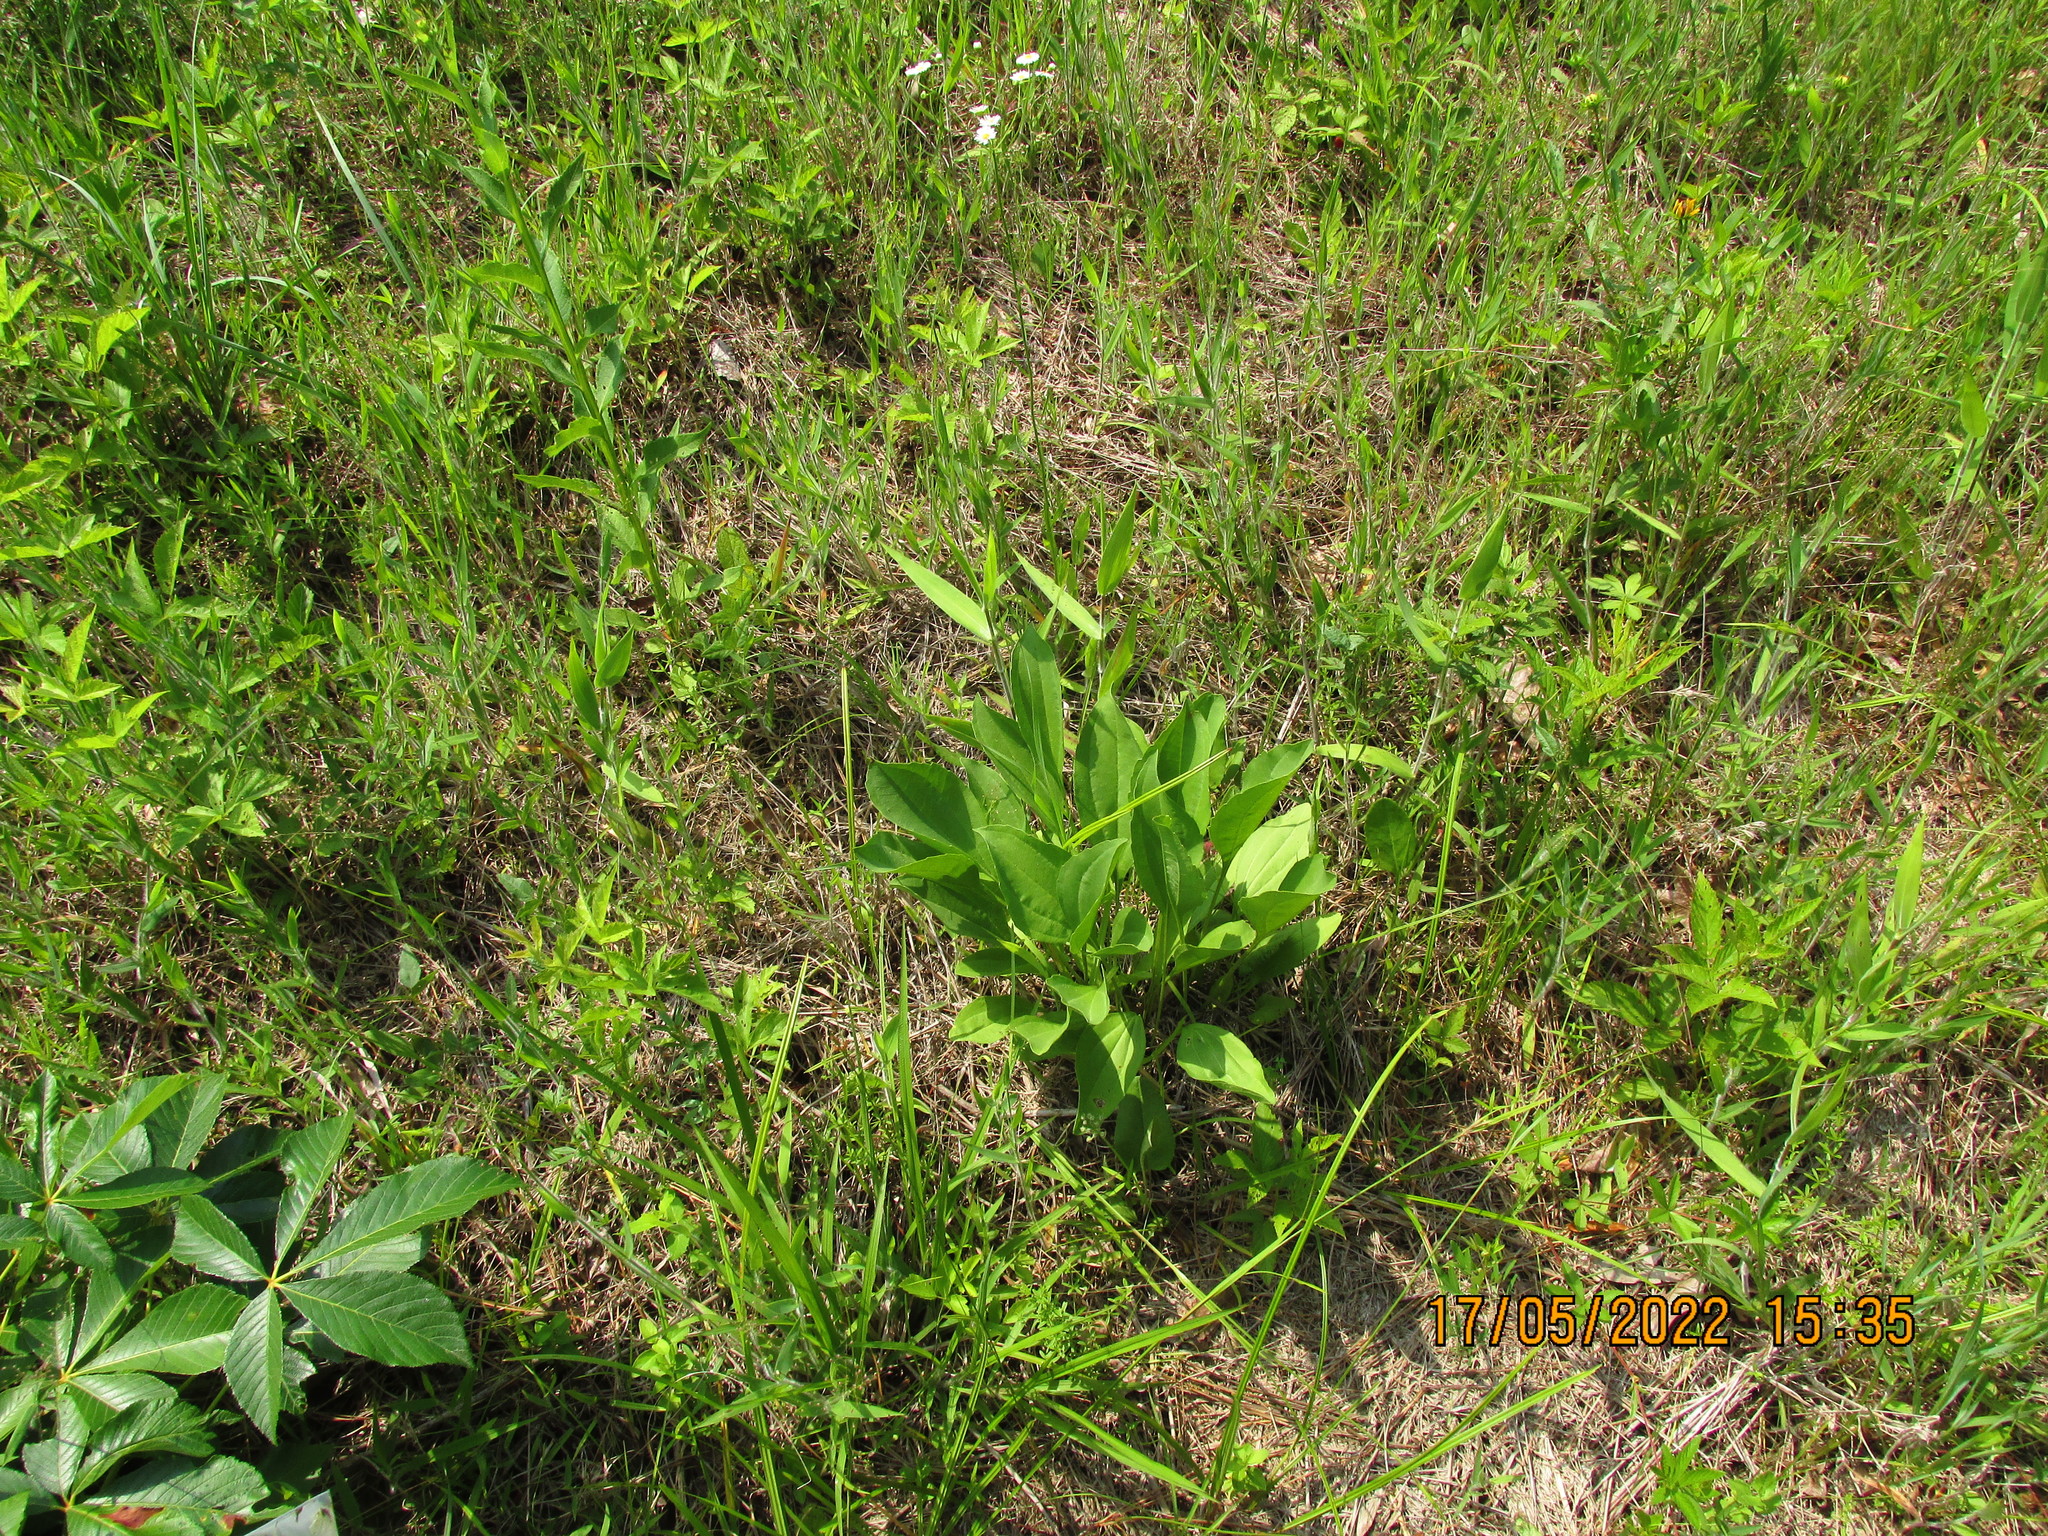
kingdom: Plantae
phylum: Tracheophyta
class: Magnoliopsida
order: Asterales
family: Asteraceae
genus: Rudbeckia
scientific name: Rudbeckia grandiflora
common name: Large-flowered coneflower
